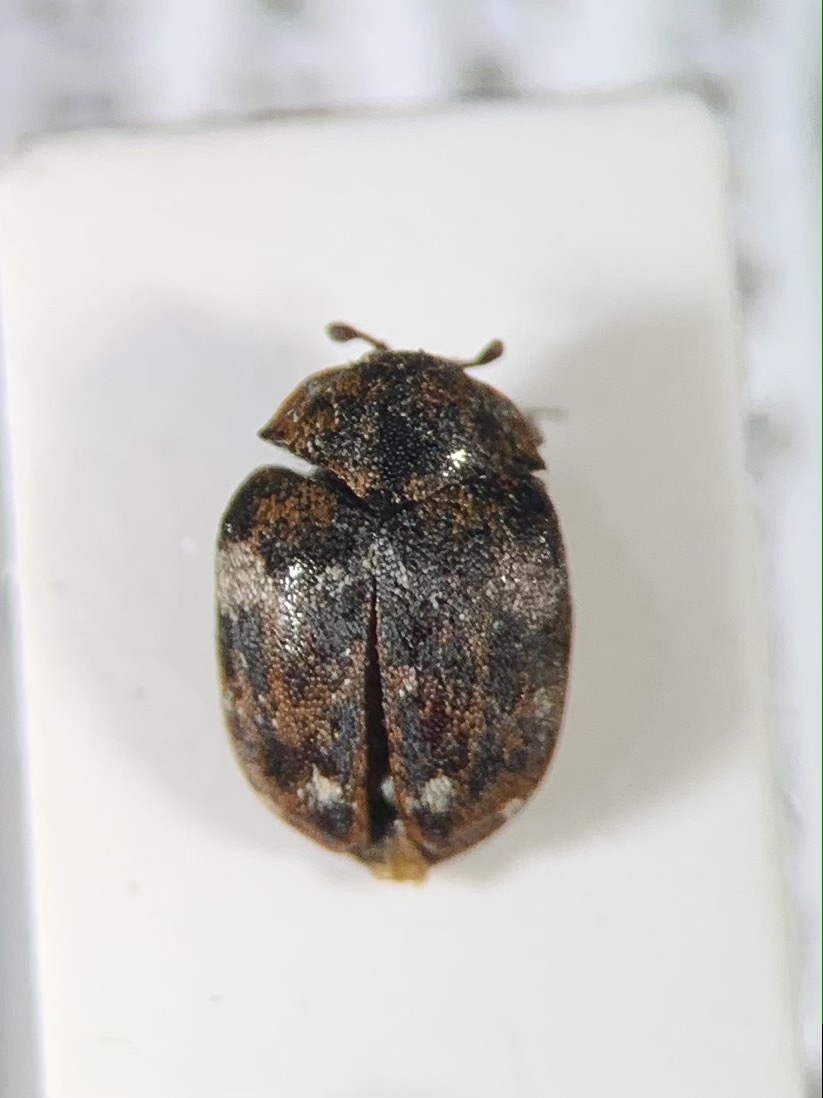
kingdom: Animalia
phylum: Arthropoda
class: Insecta
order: Coleoptera
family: Dermestidae
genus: Anthrenus
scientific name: Anthrenus angustefasciatus
